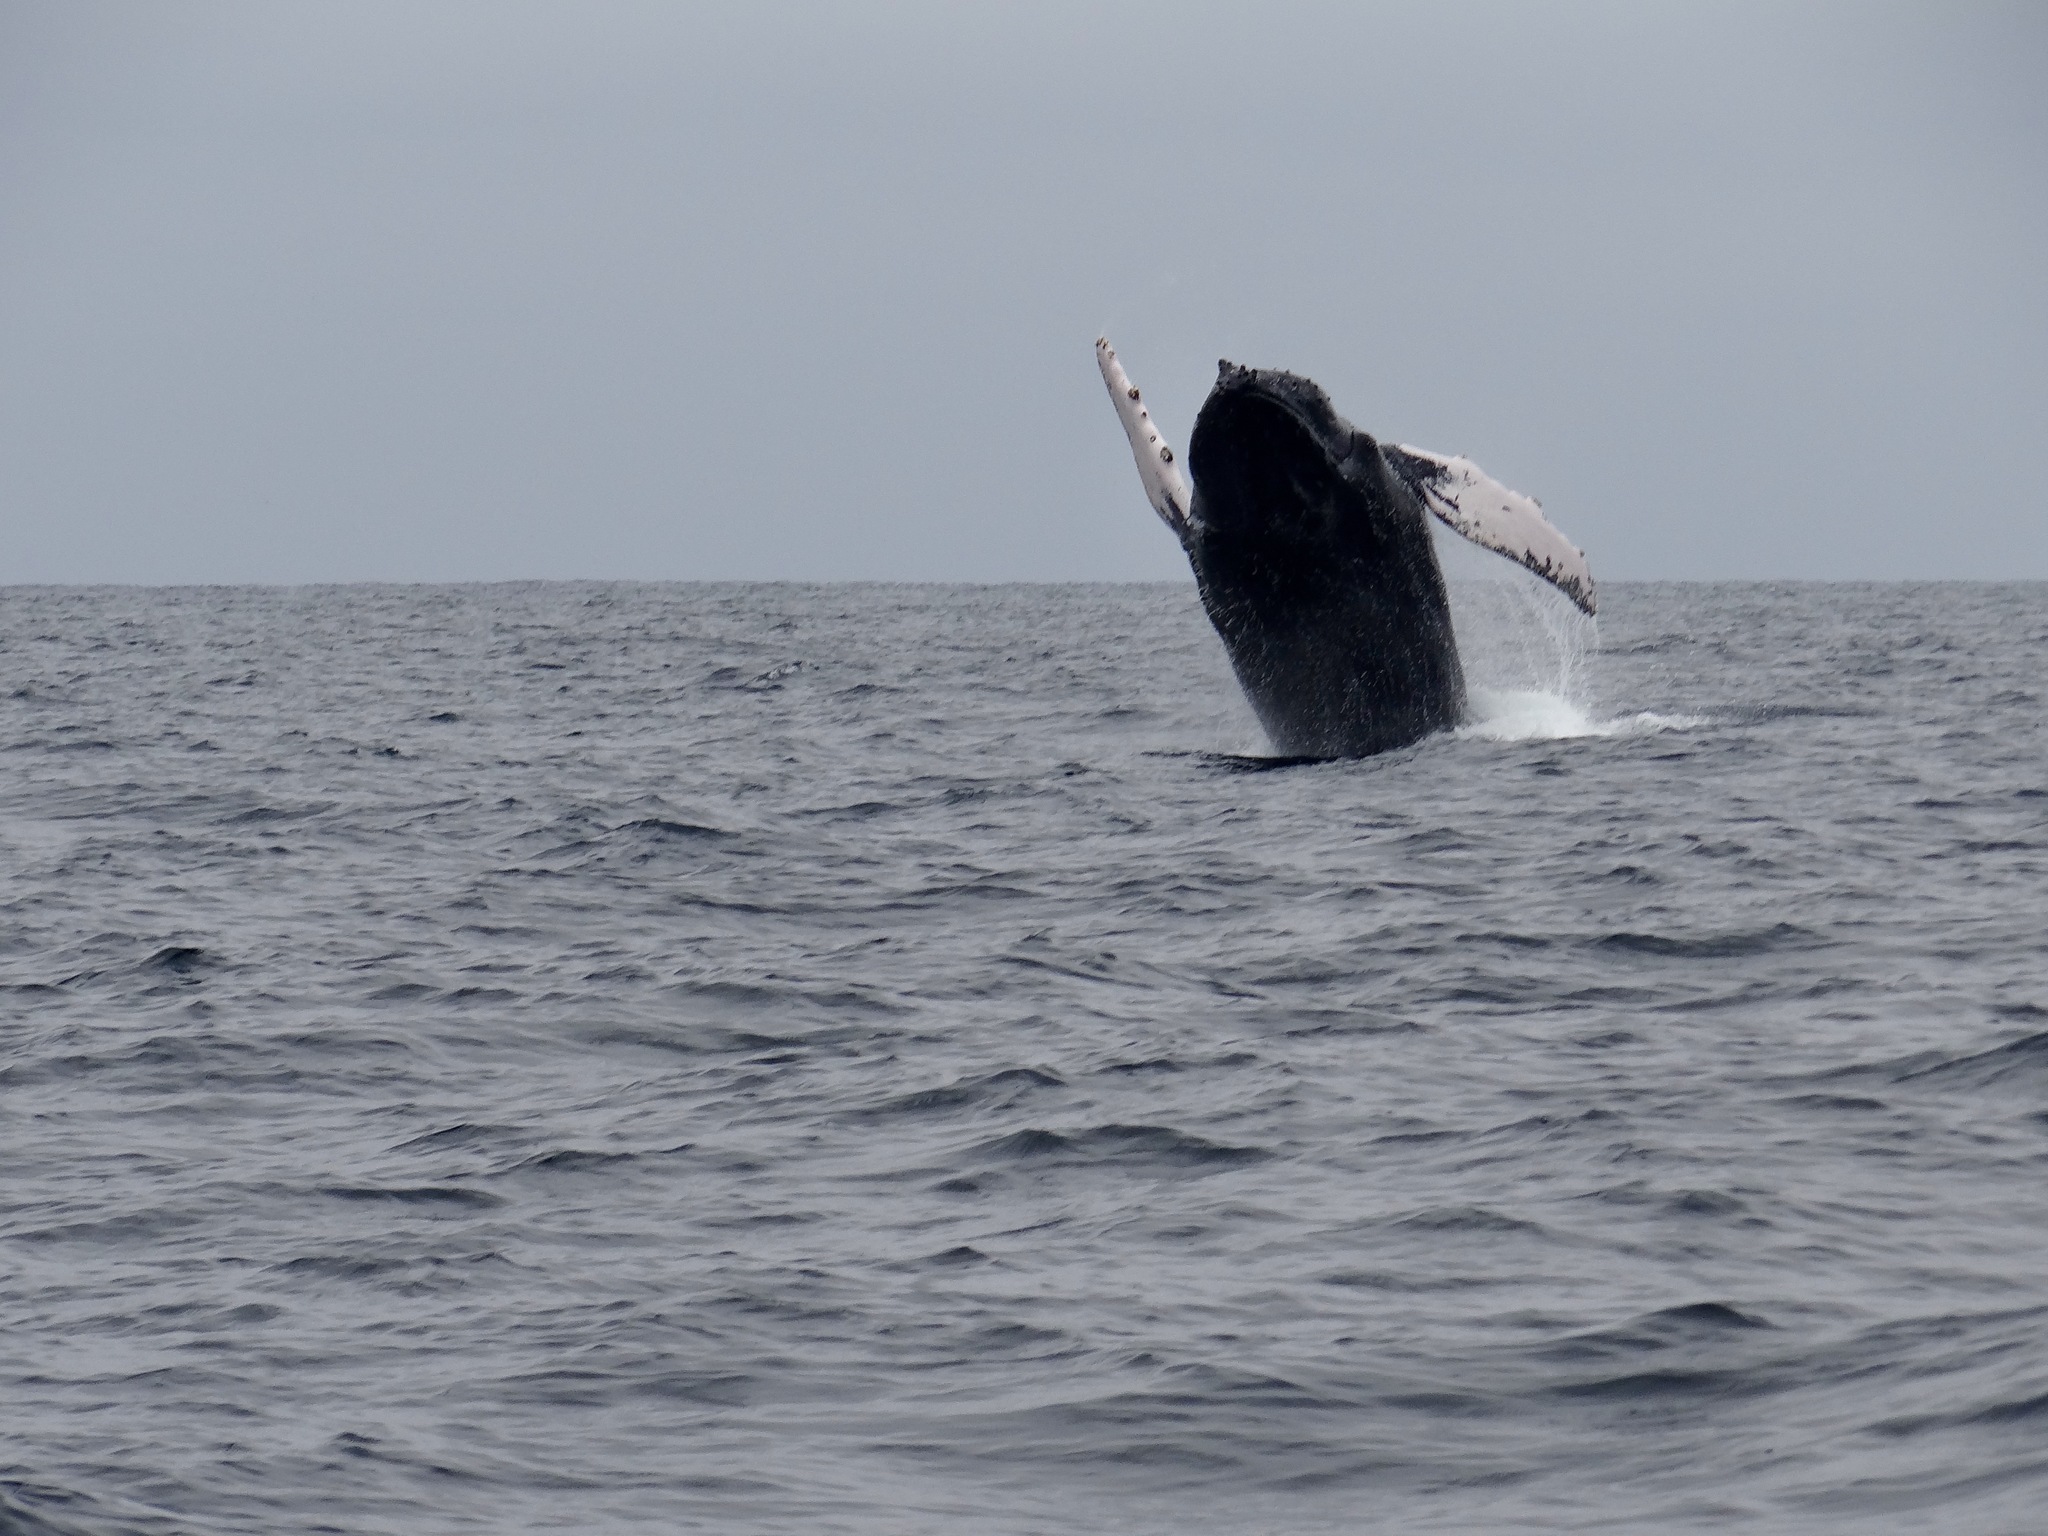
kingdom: Animalia
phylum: Chordata
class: Mammalia
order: Cetacea
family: Balaenopteridae
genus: Megaptera
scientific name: Megaptera novaeangliae
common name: Humpback whale
